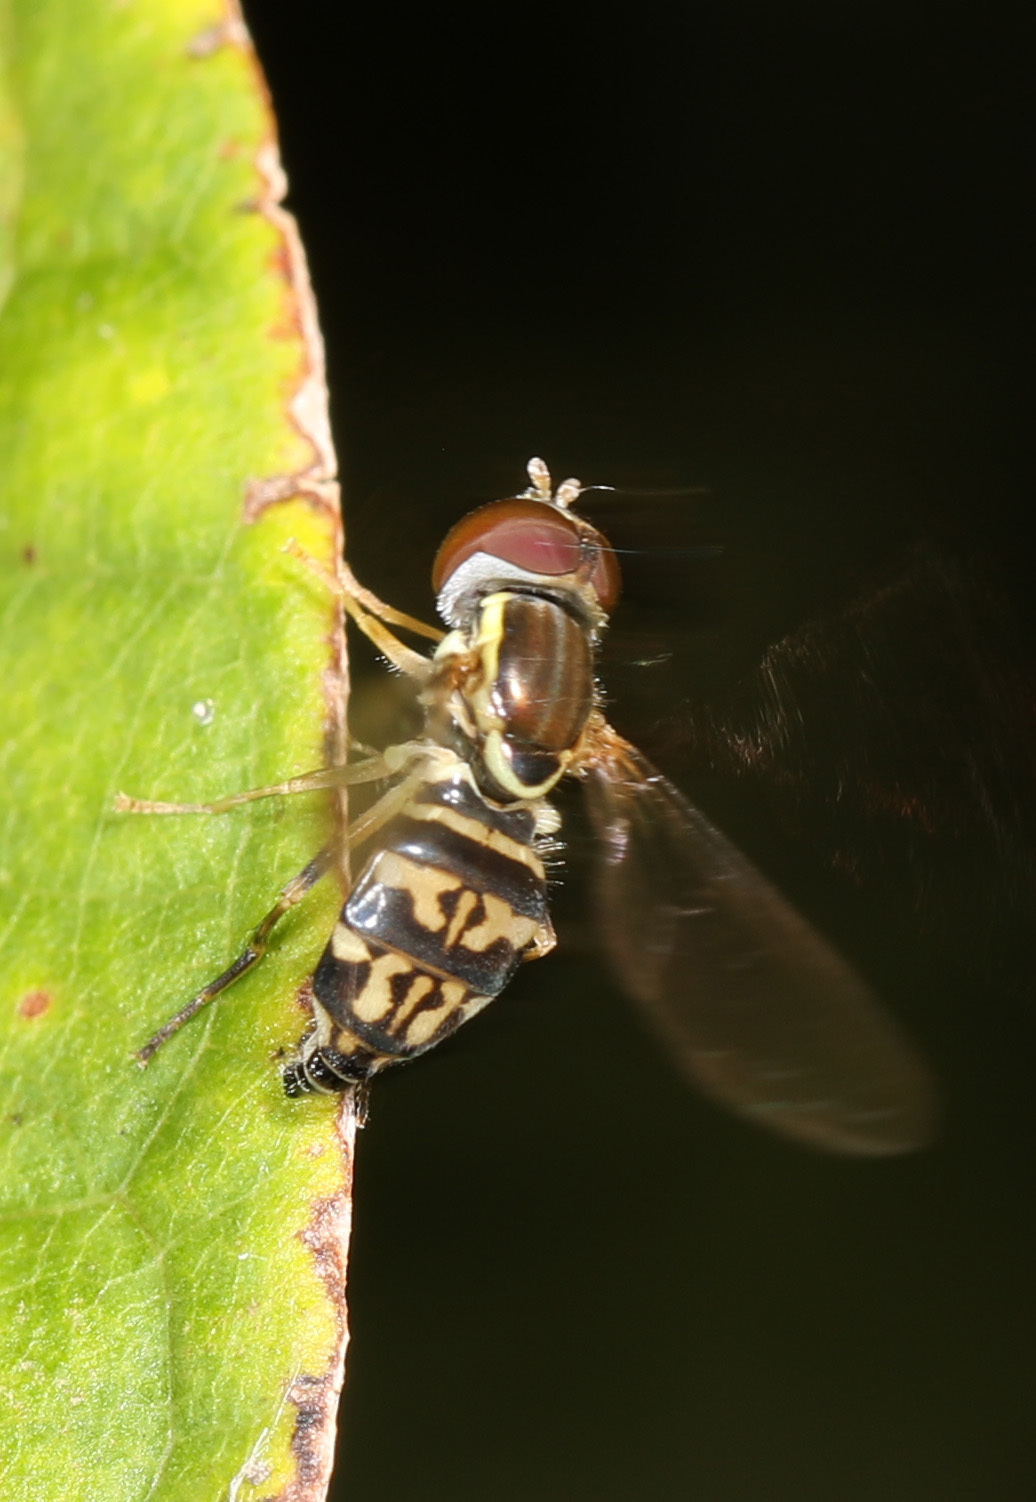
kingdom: Animalia
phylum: Arthropoda
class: Insecta
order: Diptera
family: Syrphidae
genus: Toxomerus
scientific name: Toxomerus geminatus
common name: Eastern calligrapher
